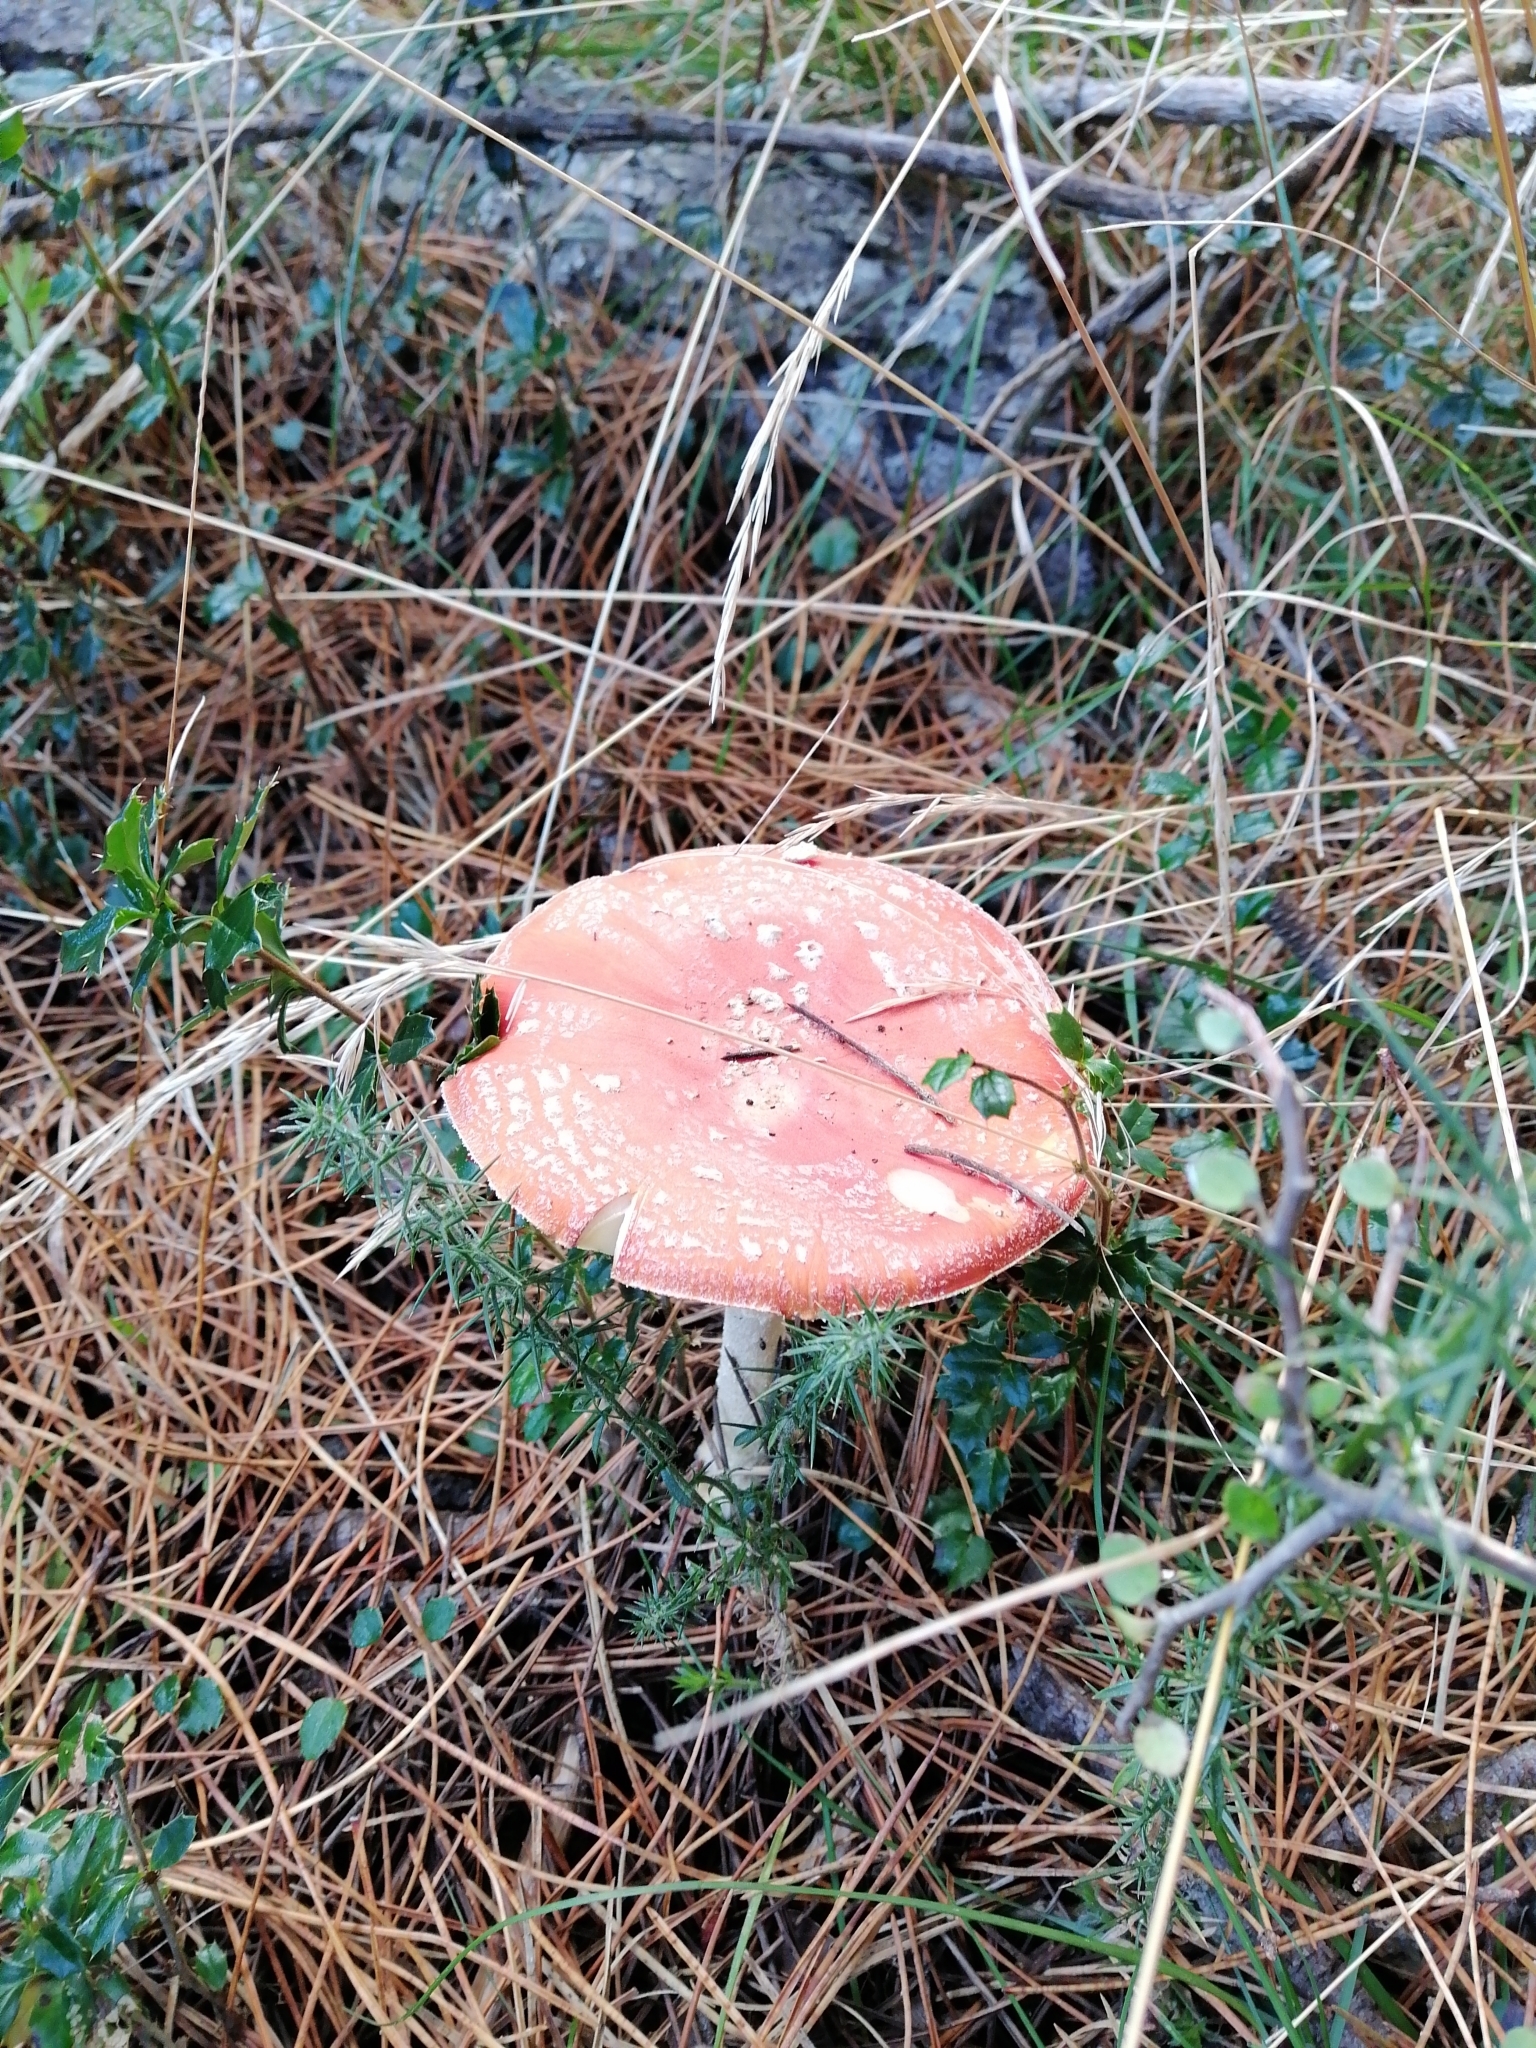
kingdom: Fungi
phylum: Basidiomycota
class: Agaricomycetes
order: Agaricales
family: Amanitaceae
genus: Amanita
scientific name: Amanita muscaria
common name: Fly agaric
